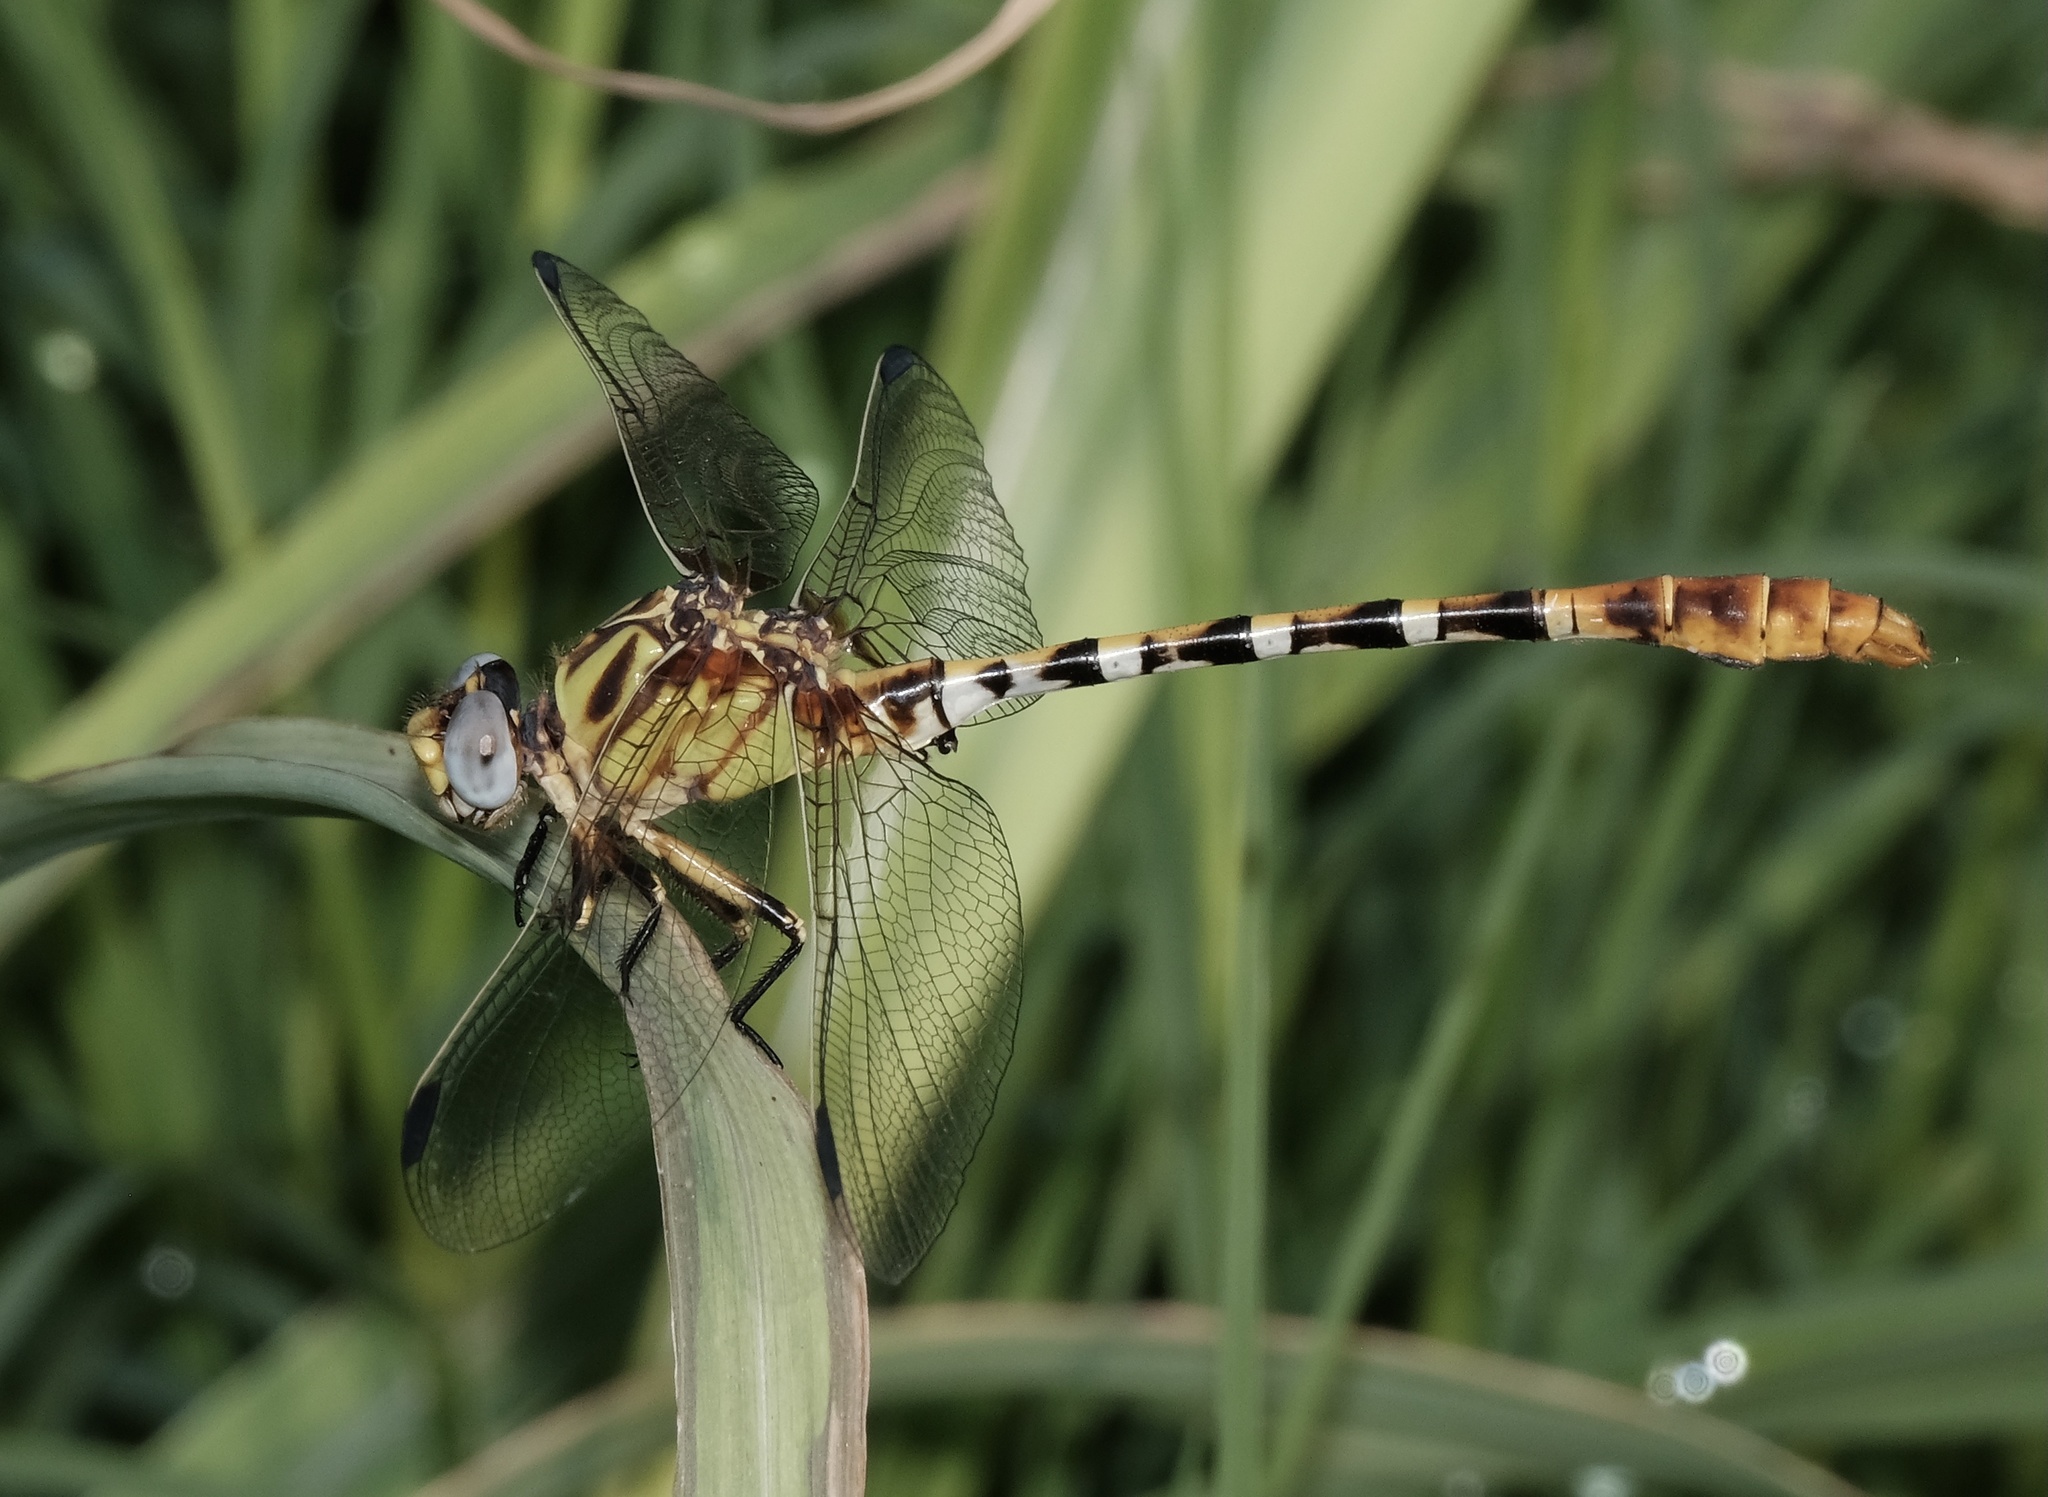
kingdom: Animalia
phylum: Arthropoda
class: Insecta
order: Odonata
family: Gomphidae
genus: Erpetogomphus
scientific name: Erpetogomphus designatus
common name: Eastern ringtail
